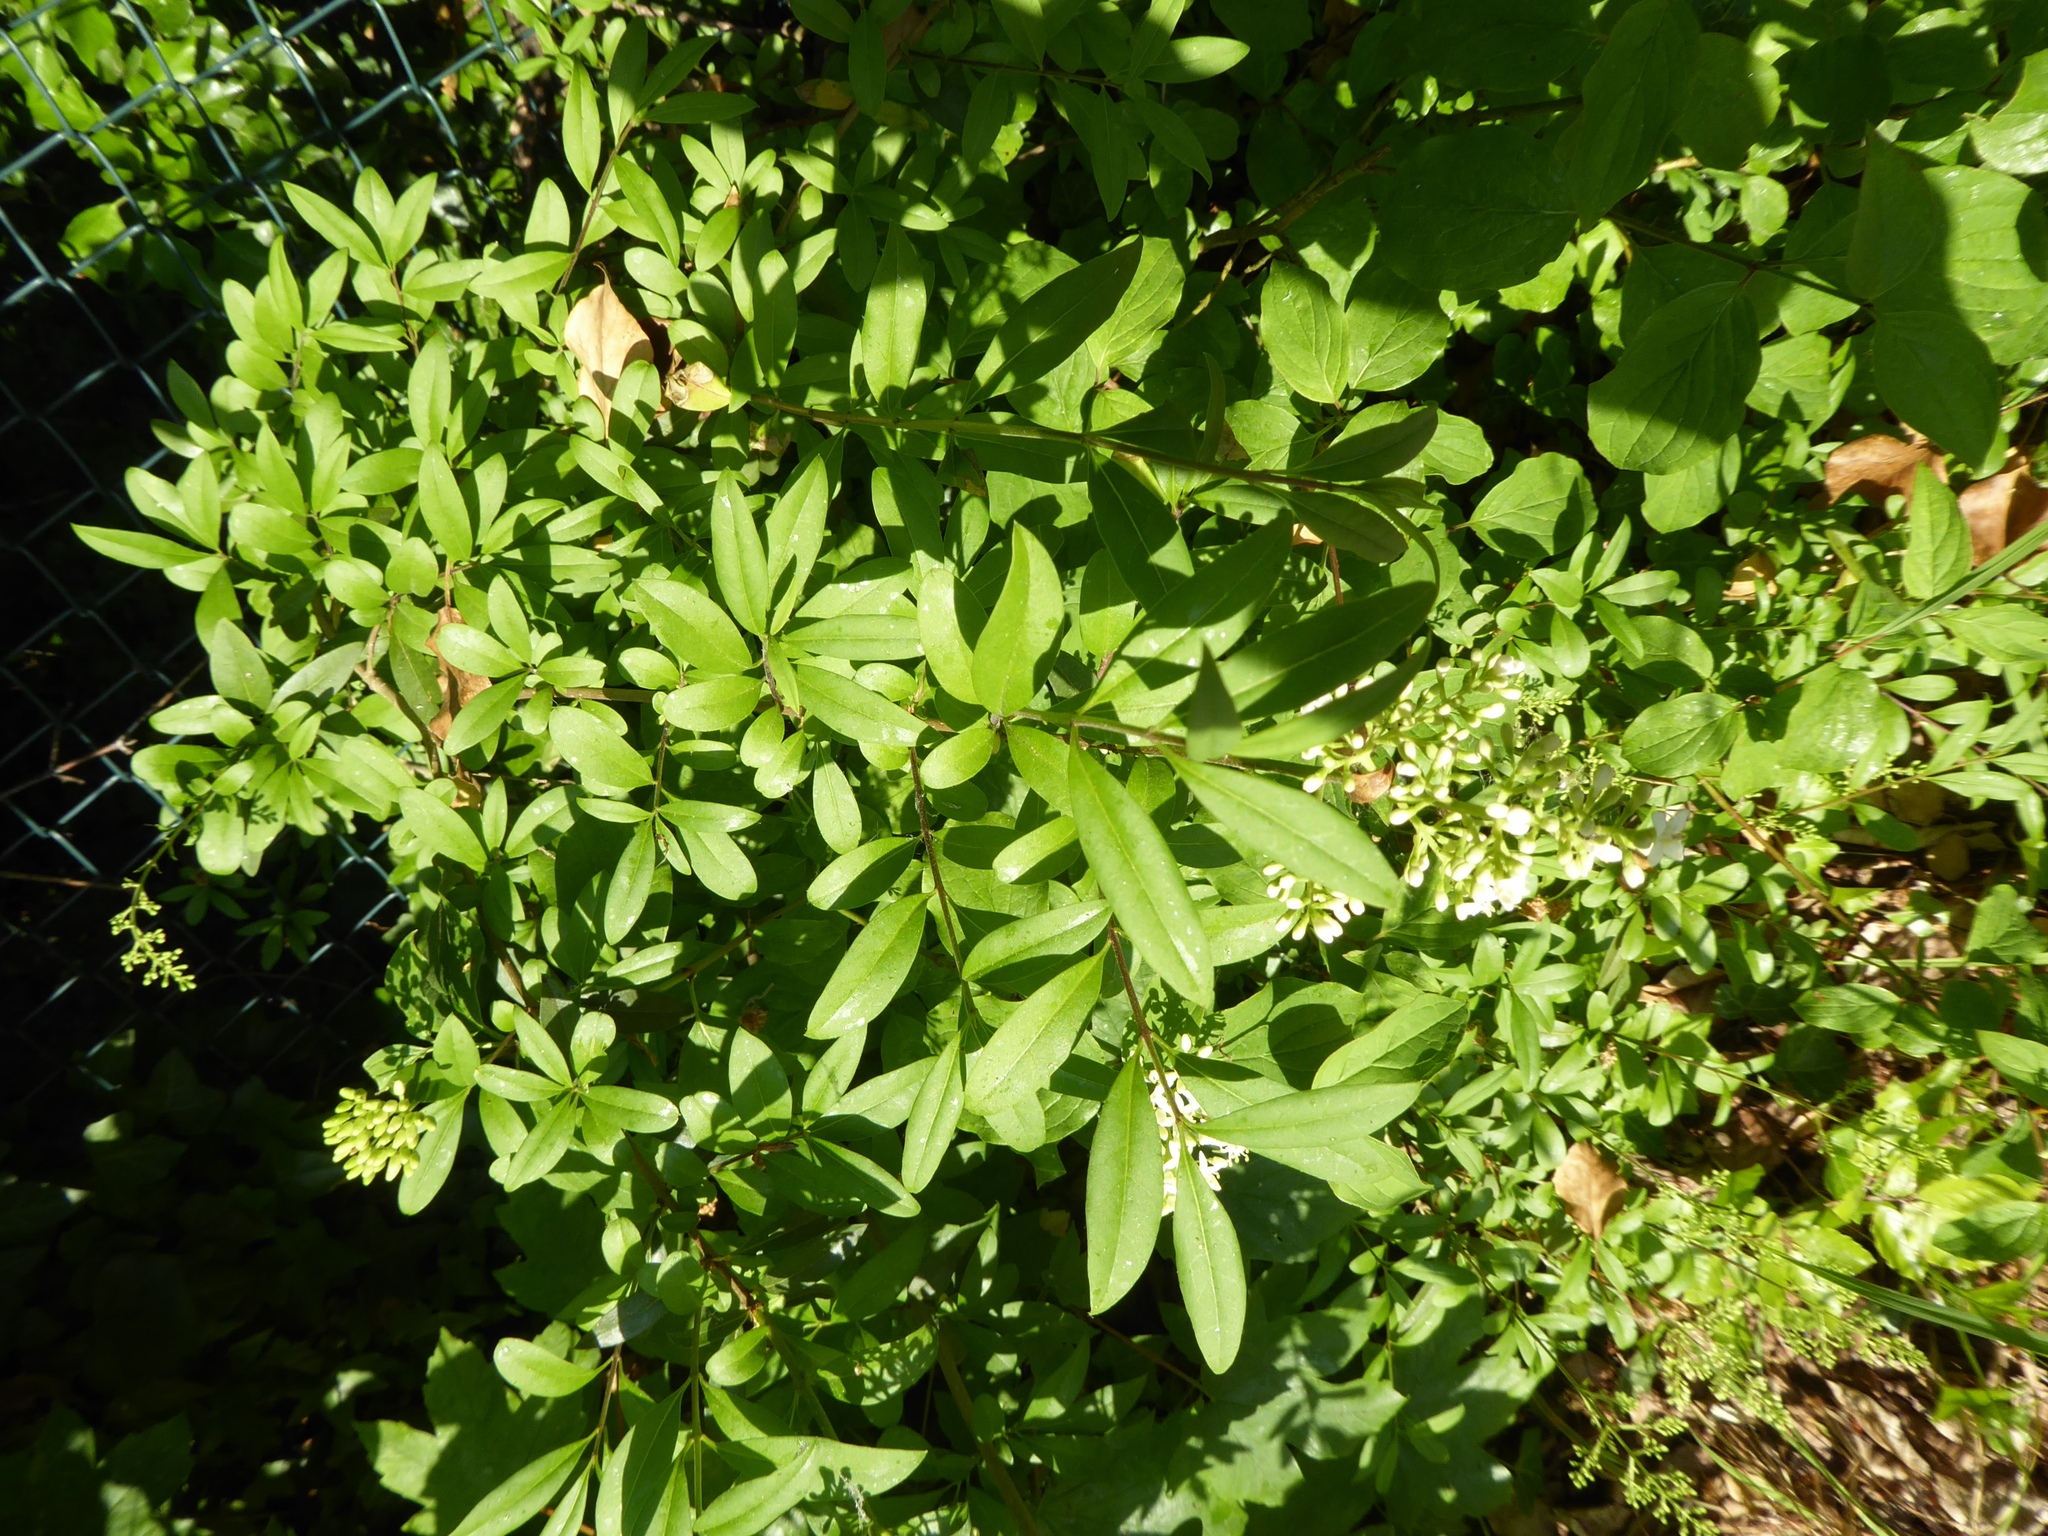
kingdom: Plantae
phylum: Tracheophyta
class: Magnoliopsida
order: Lamiales
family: Oleaceae
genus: Ligustrum
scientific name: Ligustrum vulgare
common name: Wild privet
